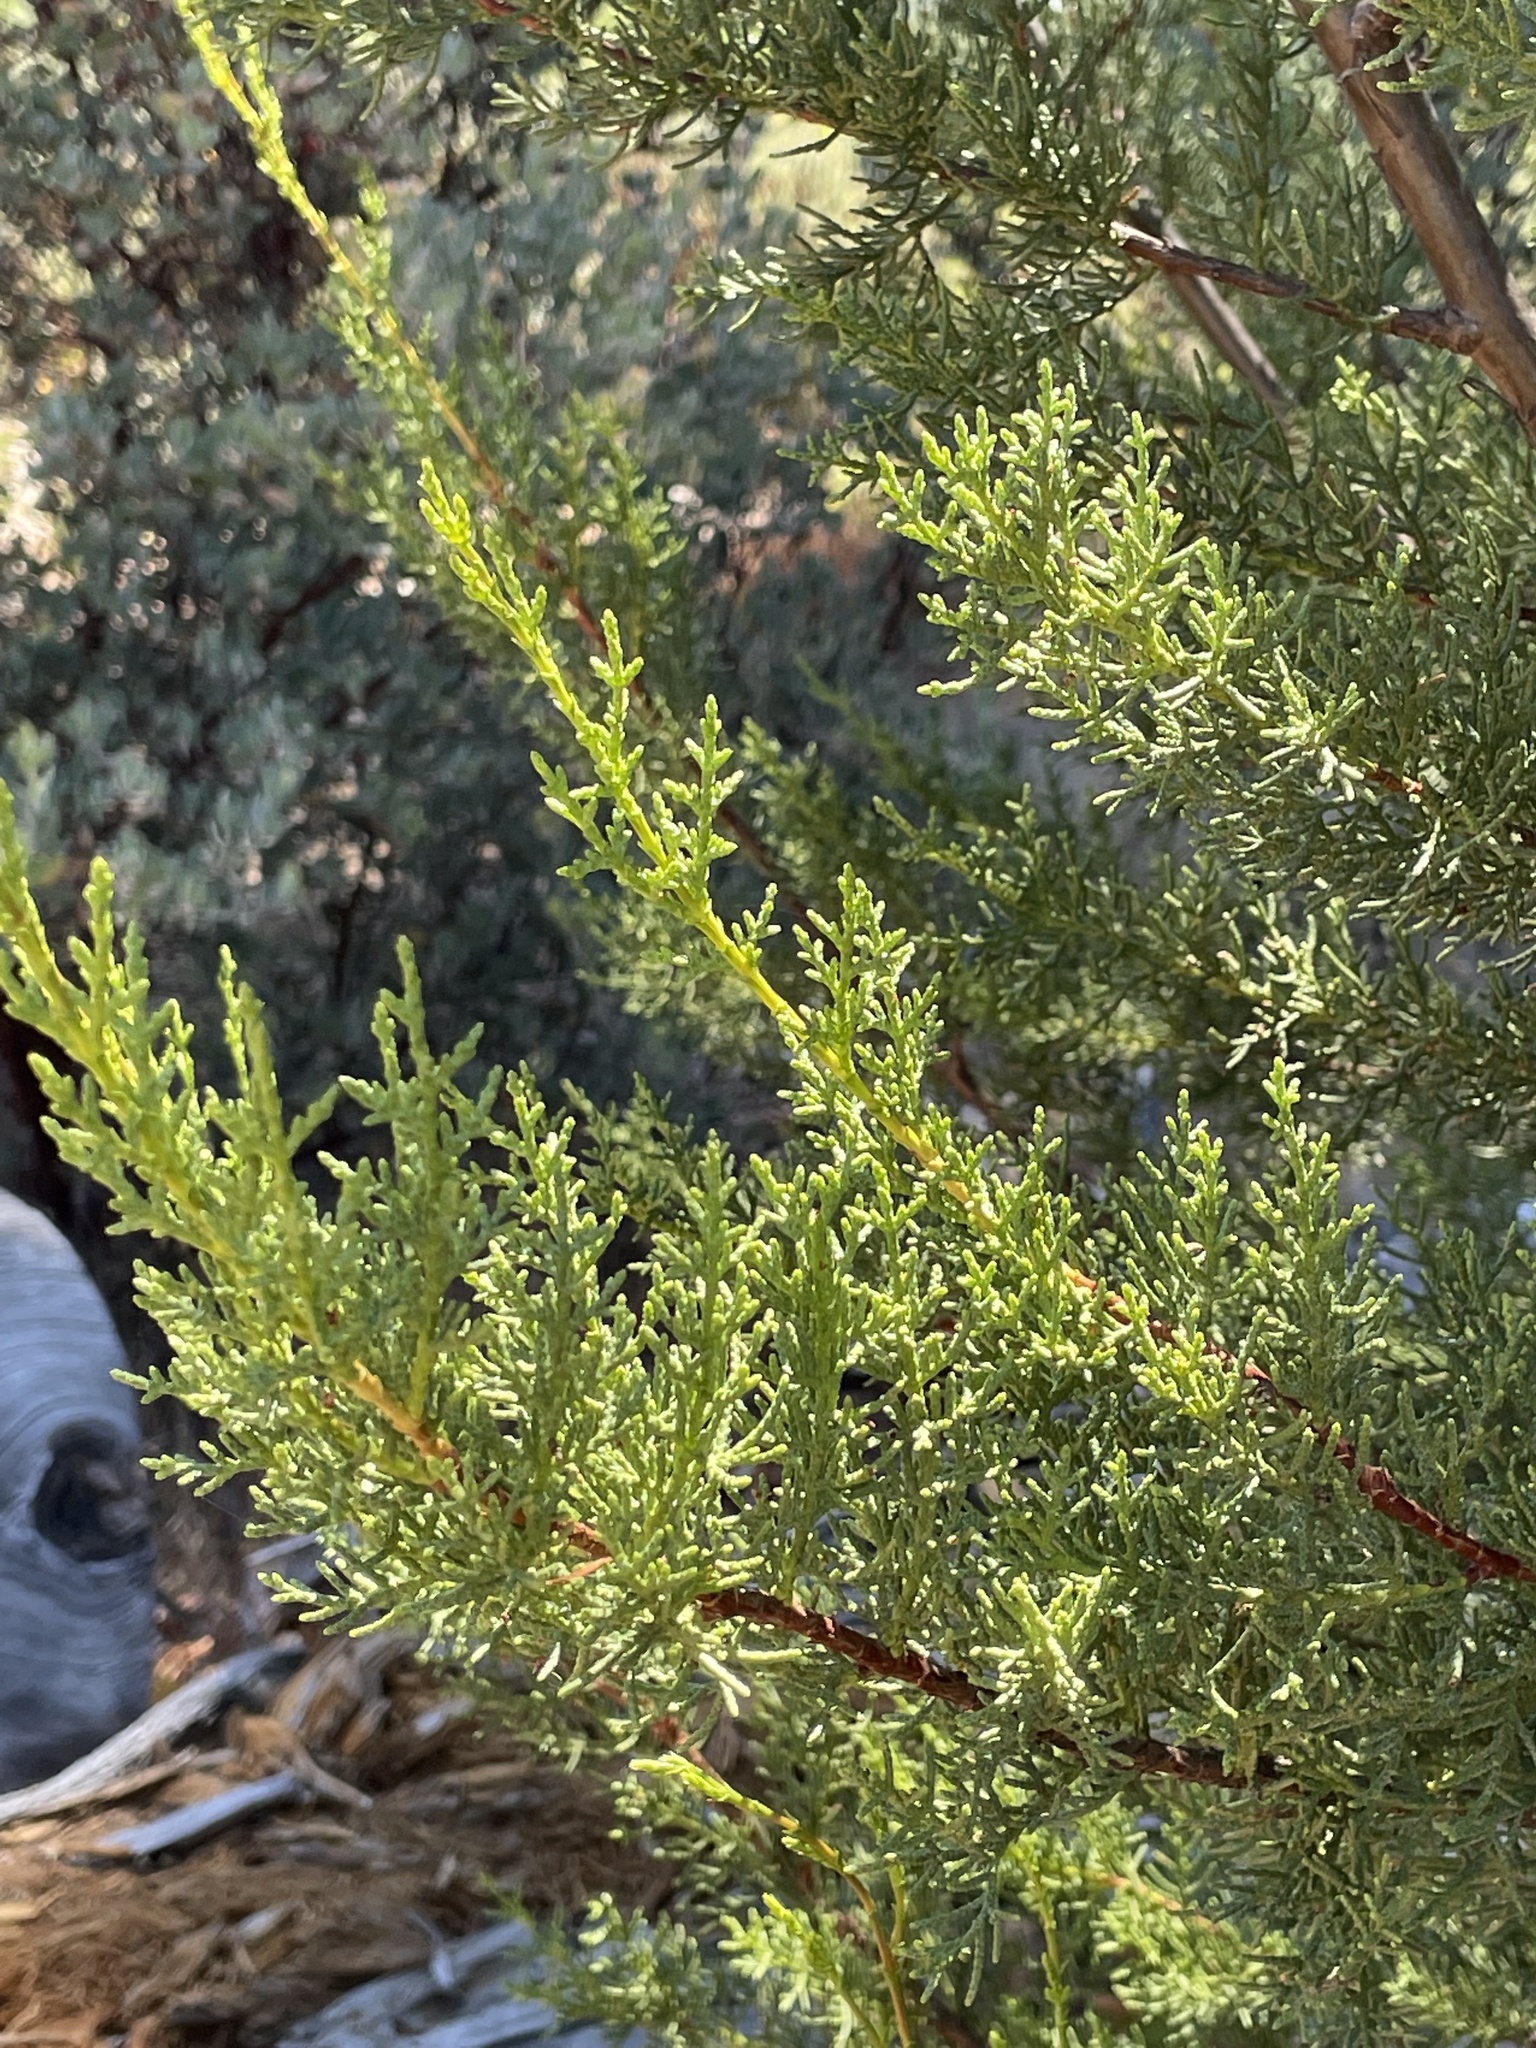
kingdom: Plantae
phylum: Tracheophyta
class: Pinopsida
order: Pinales
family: Cupressaceae
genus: Cupressus
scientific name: Cupressus goveniana
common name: Gowen cypress
